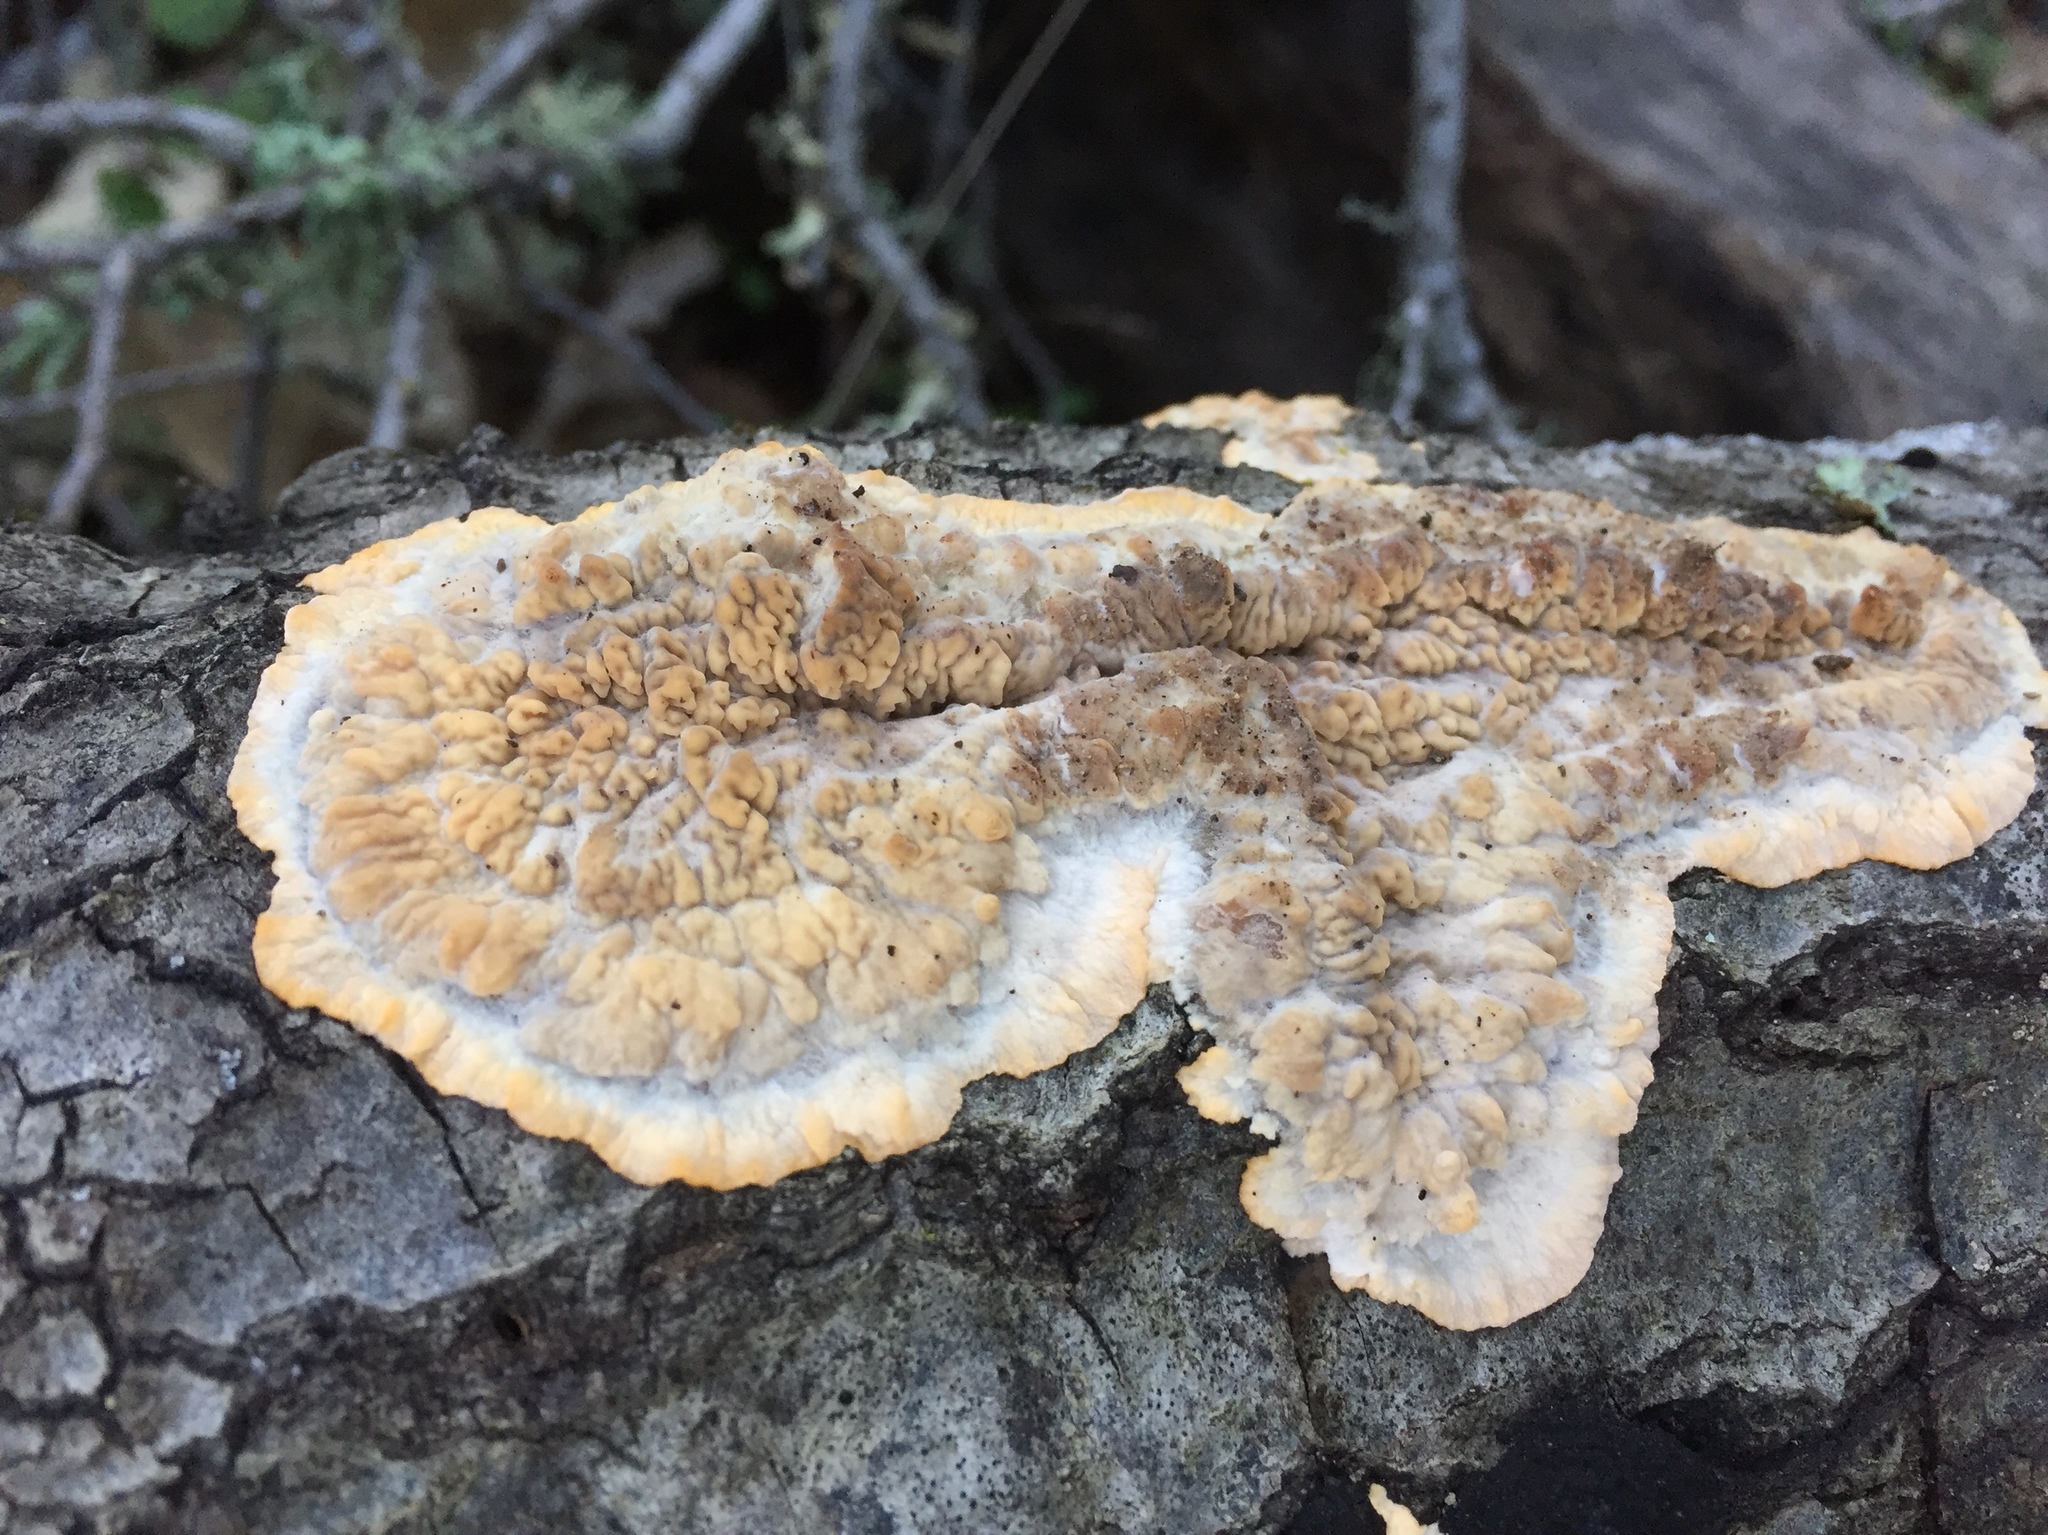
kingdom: Fungi
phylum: Basidiomycota
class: Agaricomycetes
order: Polyporales
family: Meruliaceae
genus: Phlebia
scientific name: Phlebia radiata
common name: Wrinkled crust
